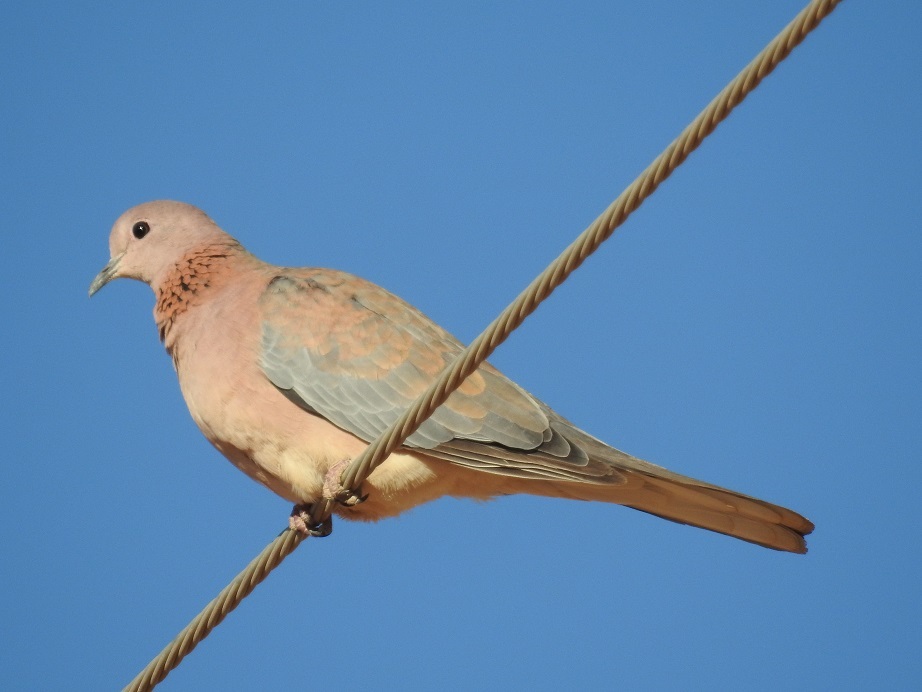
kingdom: Animalia
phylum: Chordata
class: Aves
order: Columbiformes
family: Columbidae
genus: Spilopelia
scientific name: Spilopelia senegalensis
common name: Laughing dove
